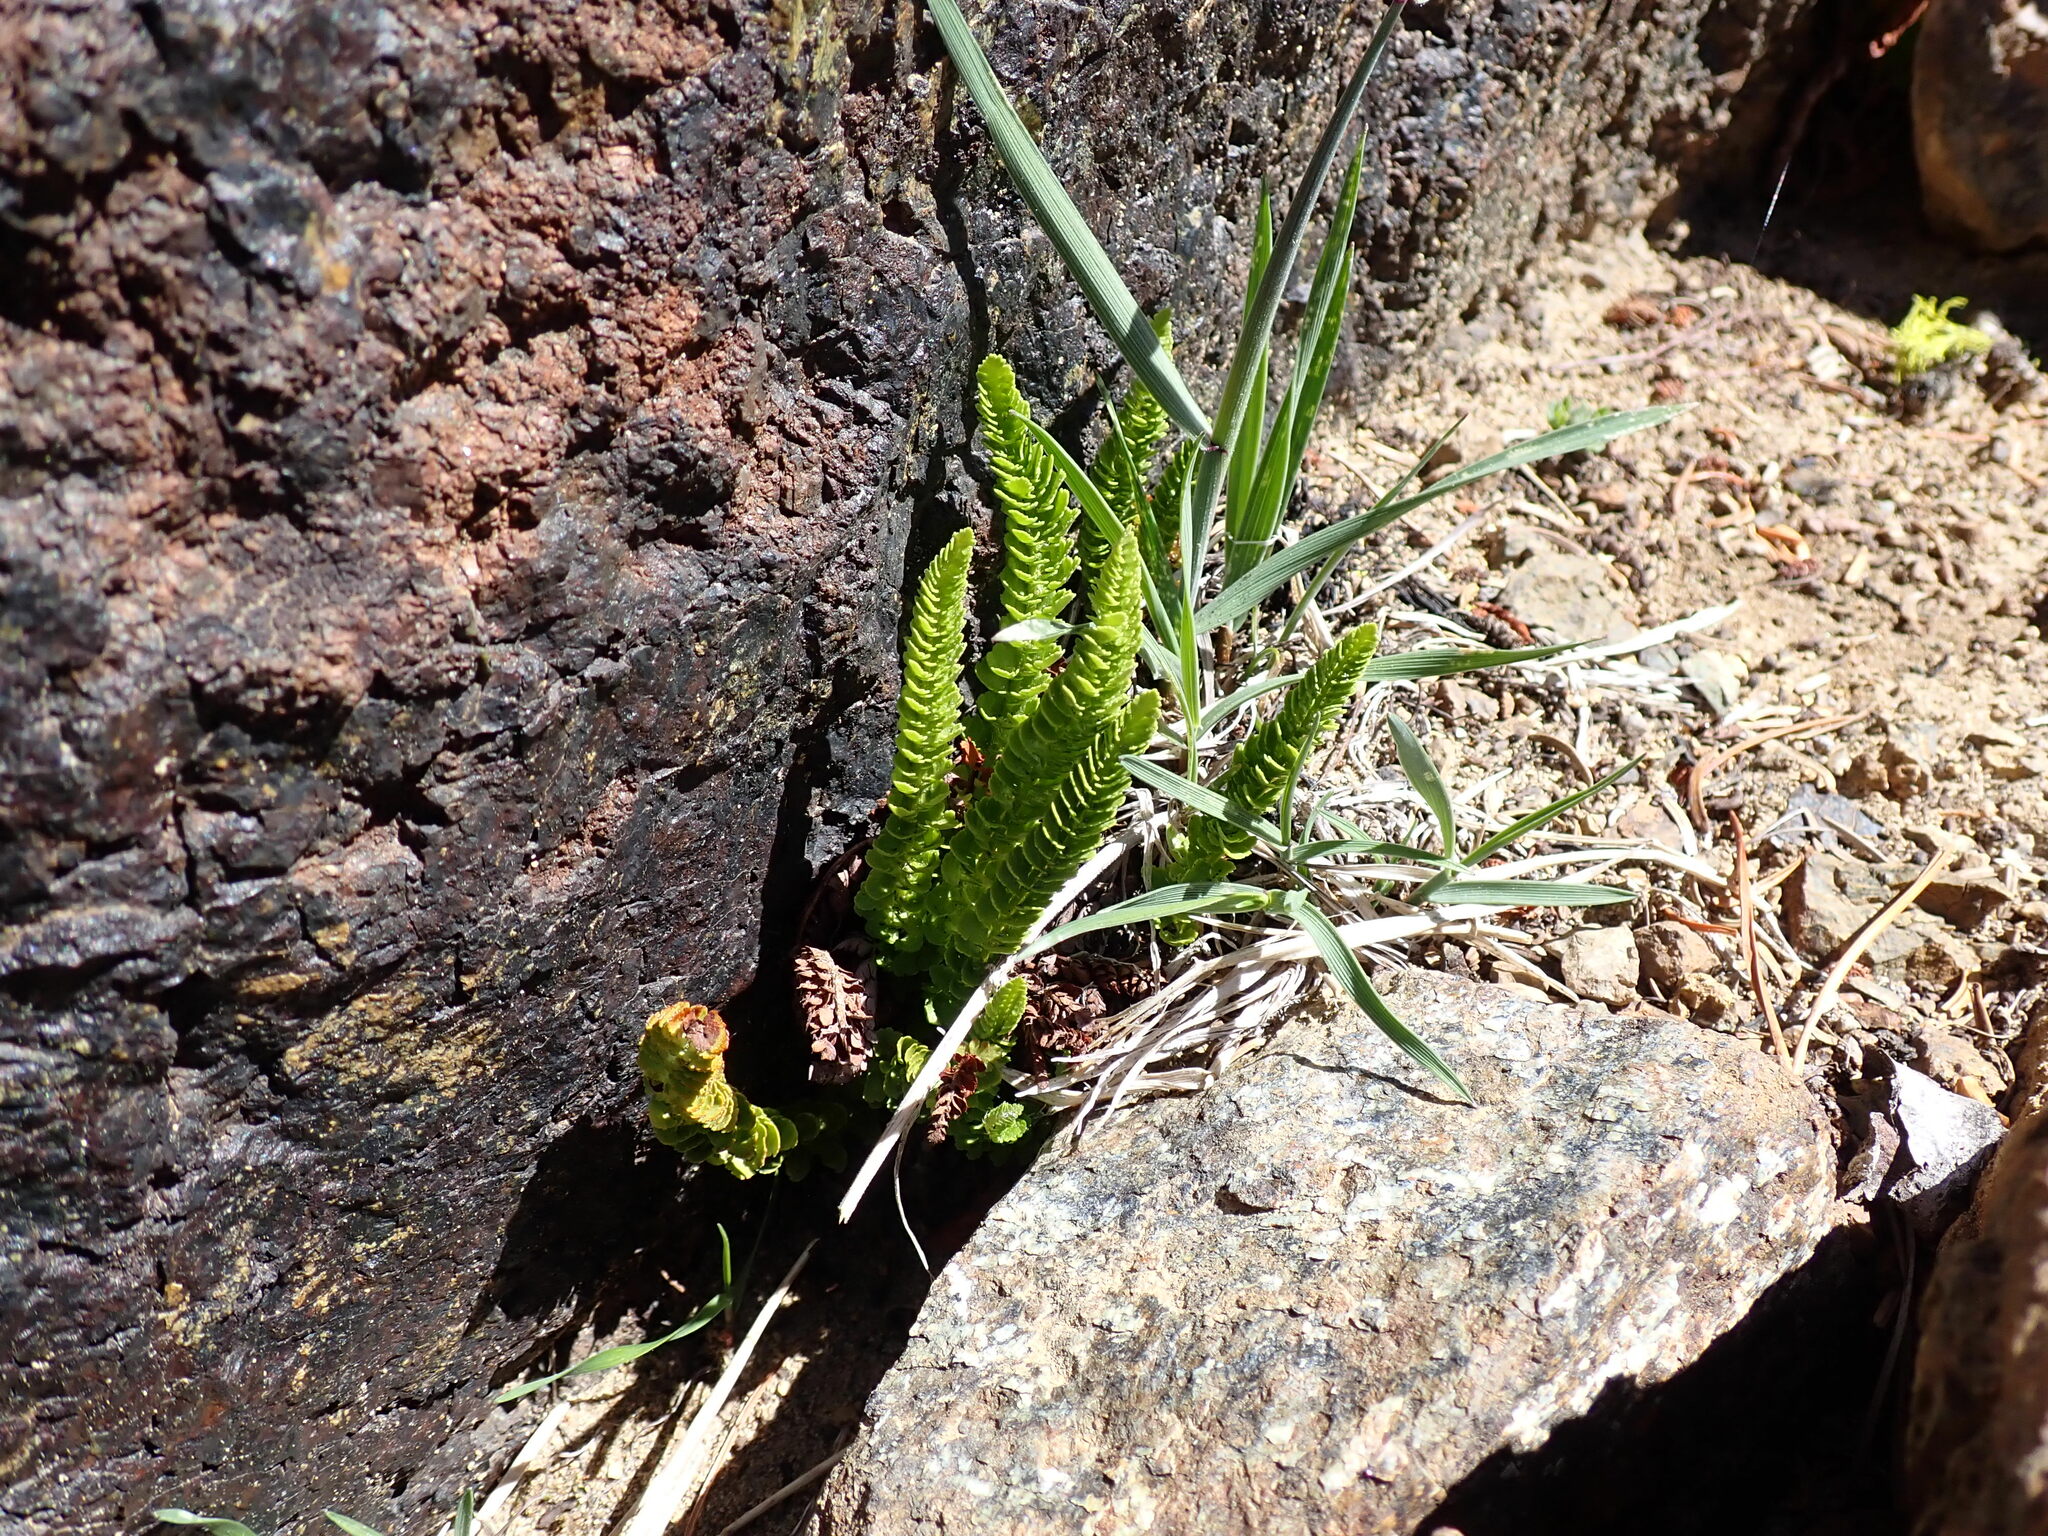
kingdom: Plantae
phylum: Tracheophyta
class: Polypodiopsida
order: Polypodiales
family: Dryopteridaceae
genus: Polystichum
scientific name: Polystichum lemmonii
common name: Lemmon's holly fern
